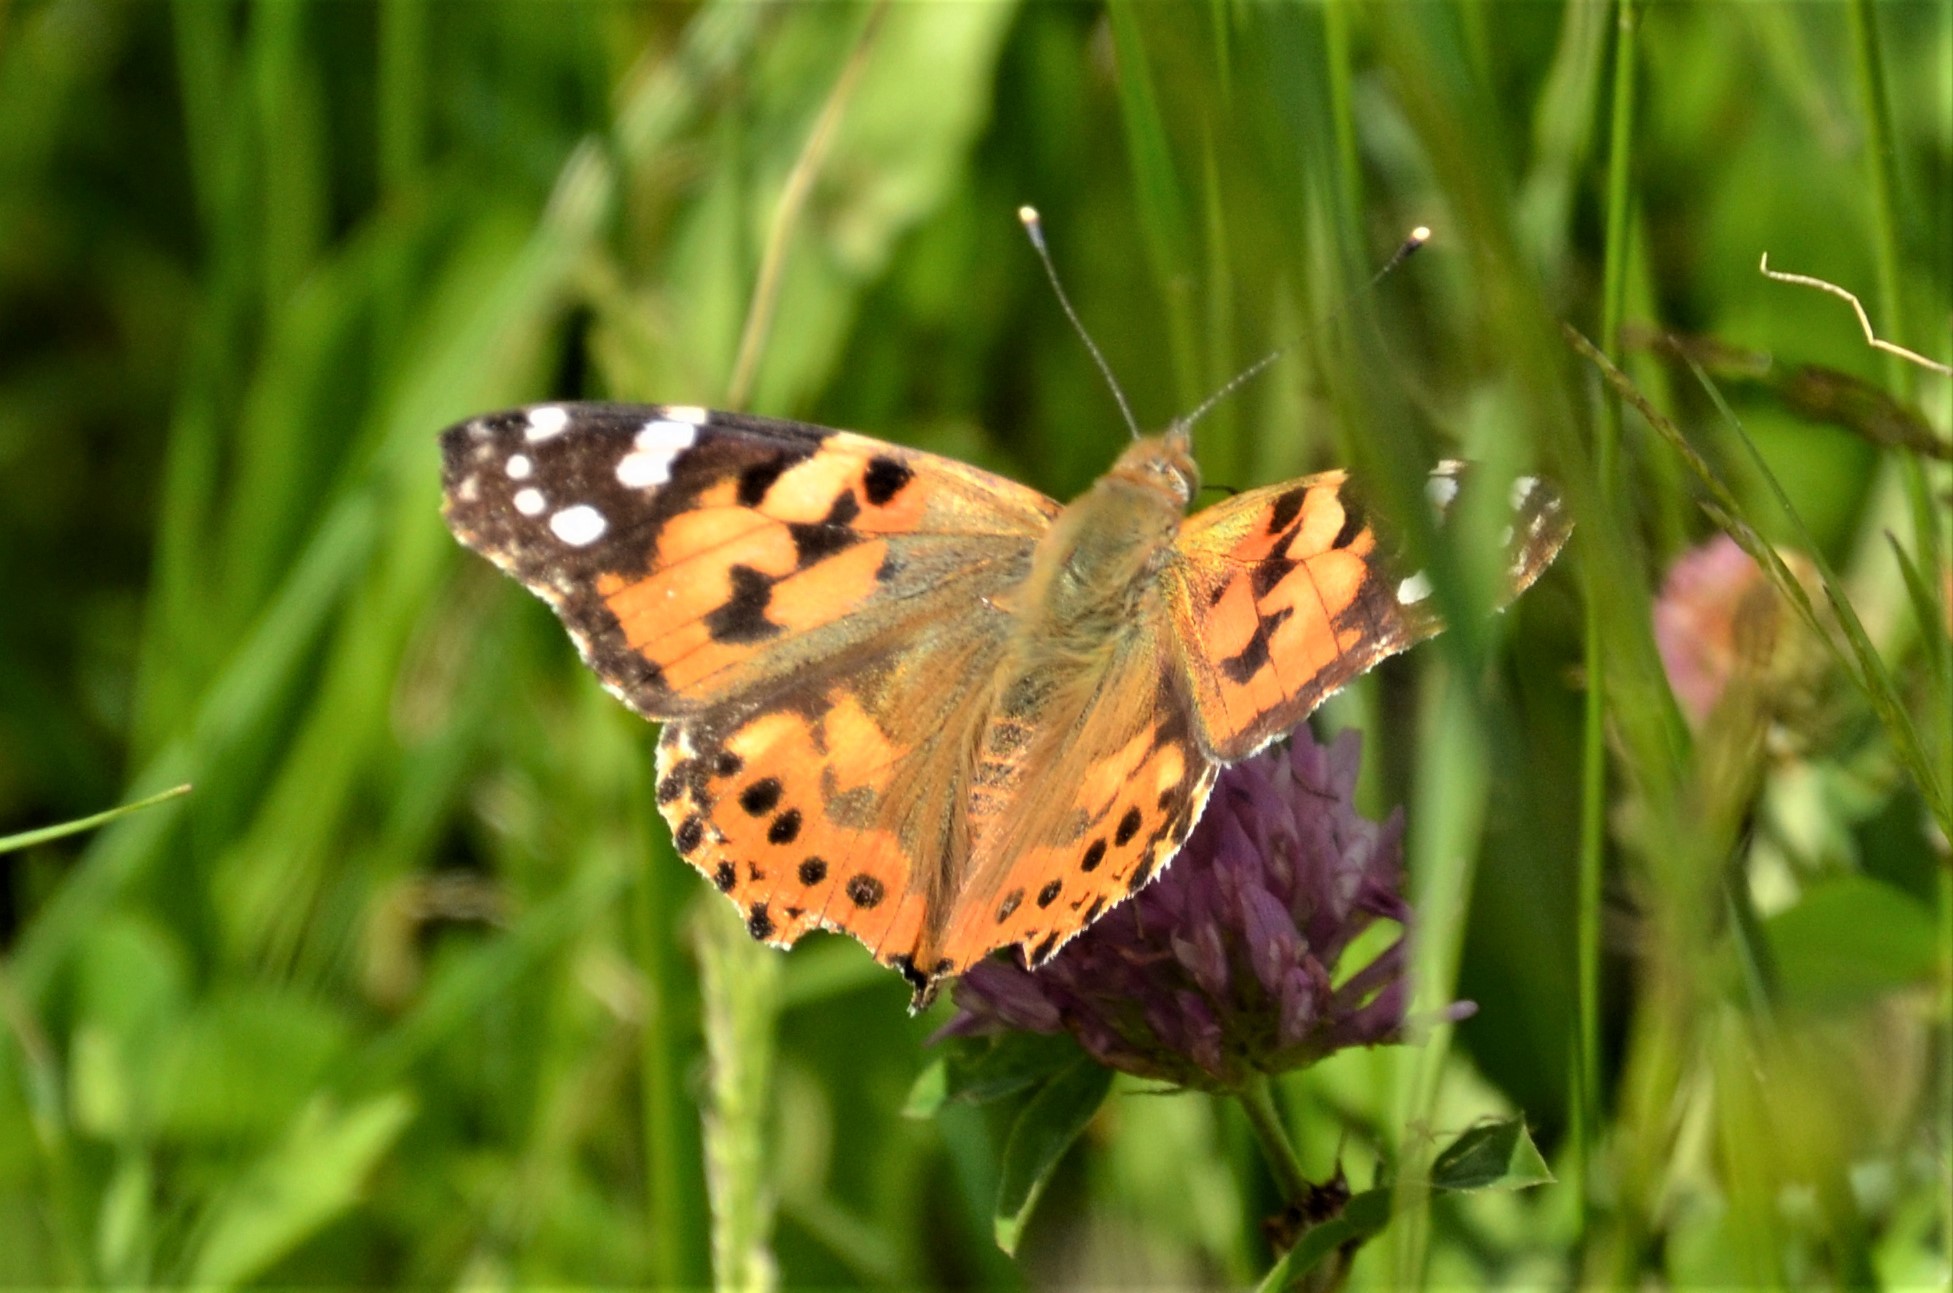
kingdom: Animalia
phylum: Arthropoda
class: Insecta
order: Lepidoptera
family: Nymphalidae
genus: Vanessa
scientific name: Vanessa cardui
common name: Painted lady
